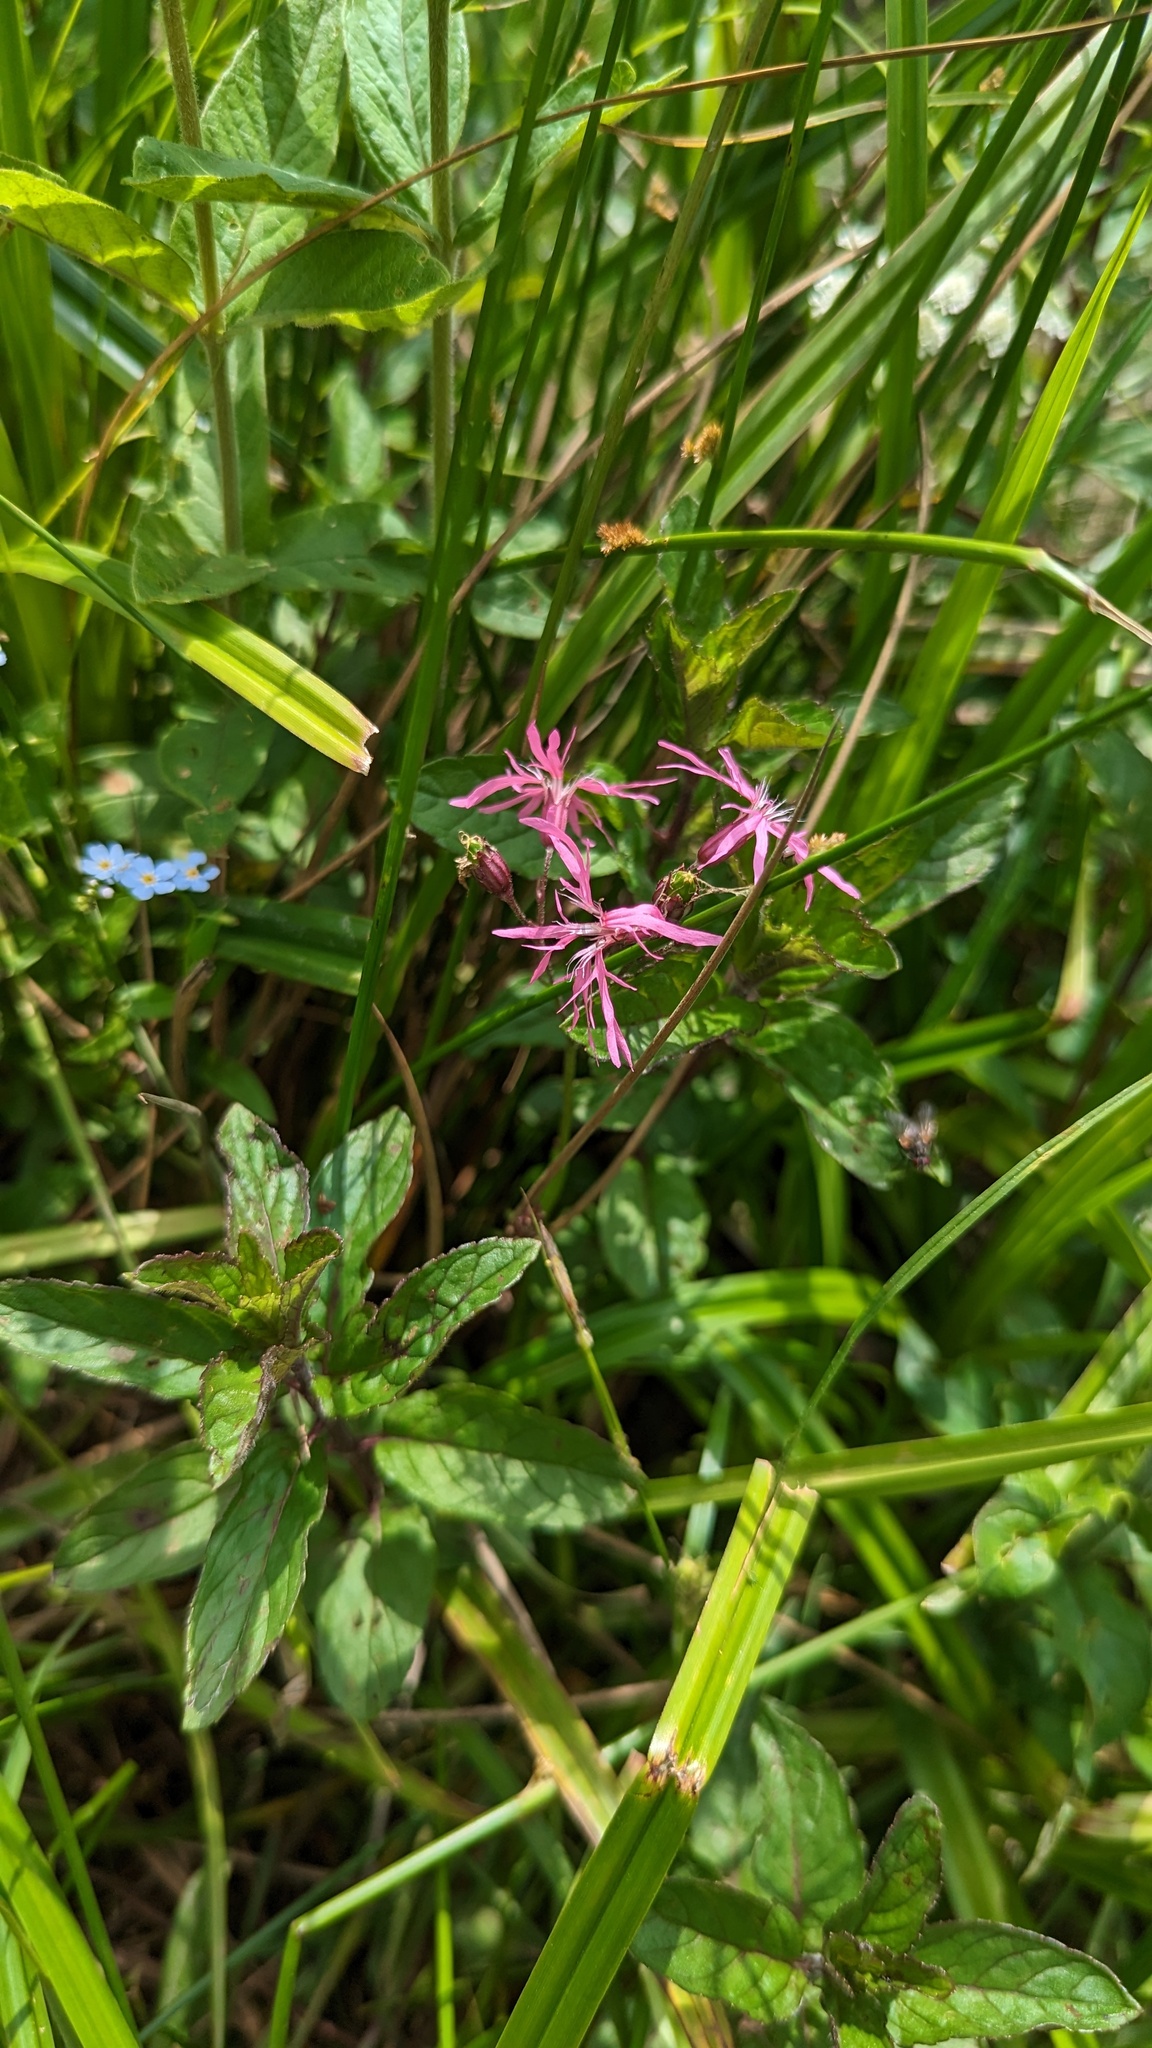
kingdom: Plantae
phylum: Tracheophyta
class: Magnoliopsida
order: Caryophyllales
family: Caryophyllaceae
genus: Silene
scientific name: Silene flos-cuculi
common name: Ragged-robin
